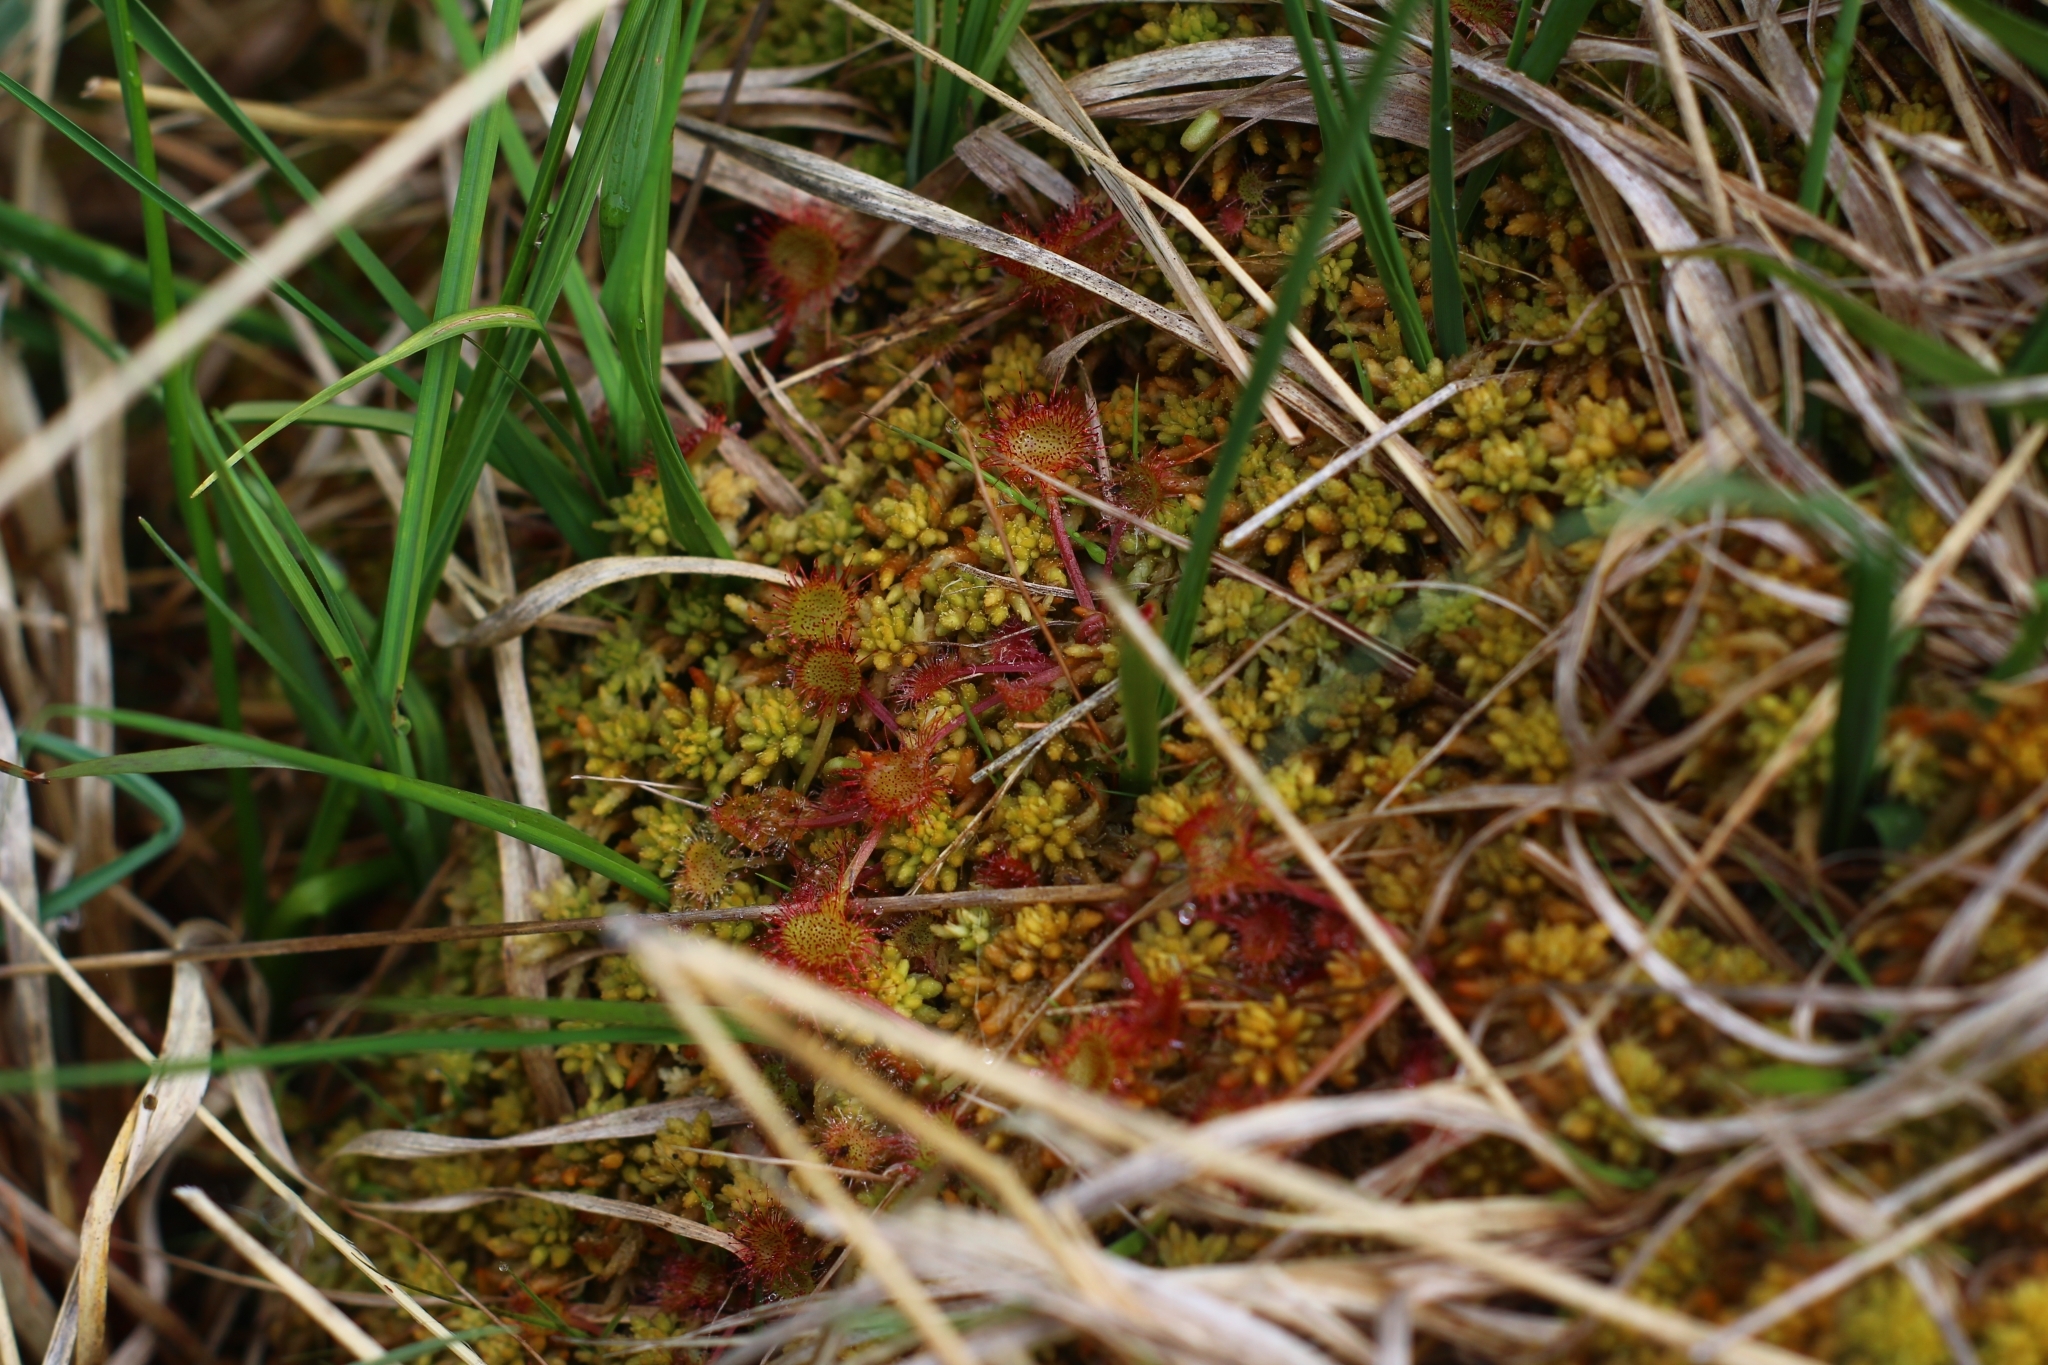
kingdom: Plantae
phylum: Tracheophyta
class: Magnoliopsida
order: Caryophyllales
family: Droseraceae
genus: Drosera
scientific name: Drosera rotundifolia
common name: Round-leaved sundew
